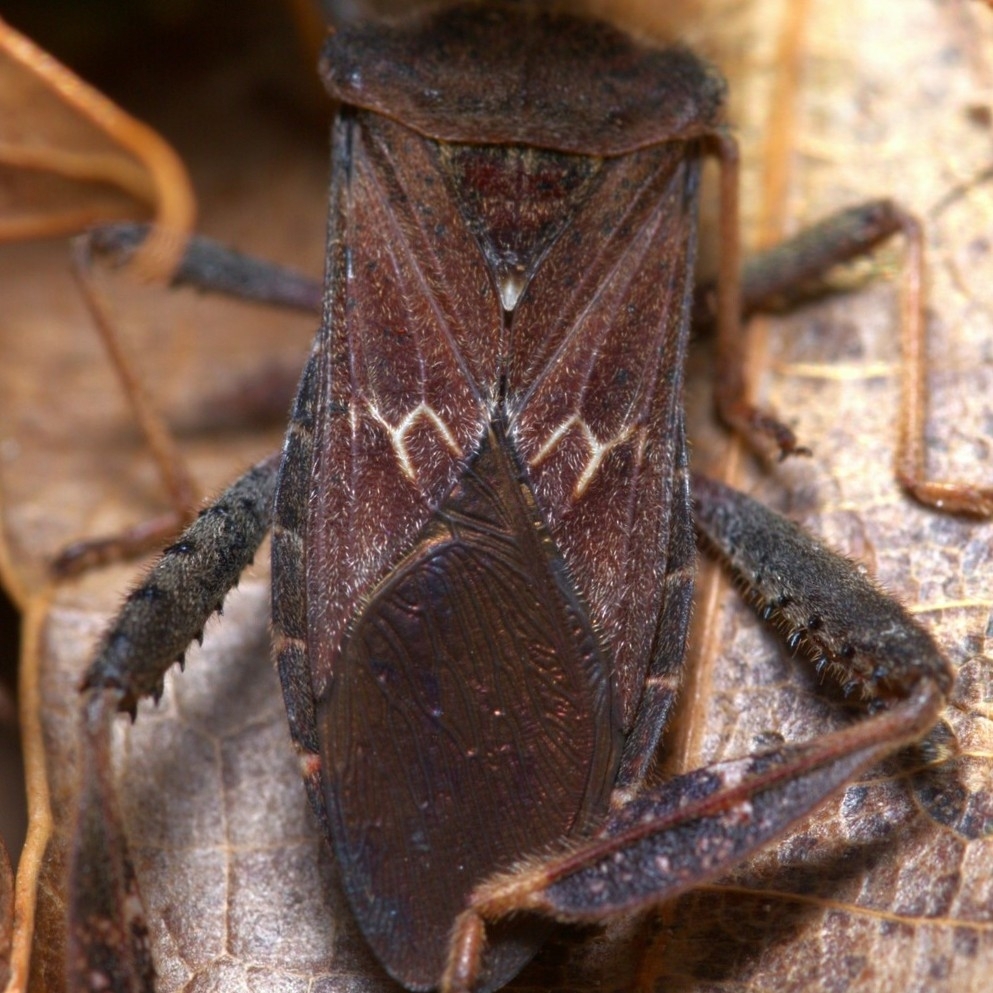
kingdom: Animalia
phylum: Arthropoda
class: Insecta
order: Hemiptera
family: Coreidae
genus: Leptoglossus
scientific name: Leptoglossus corculus
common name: Southern pine seed bug
